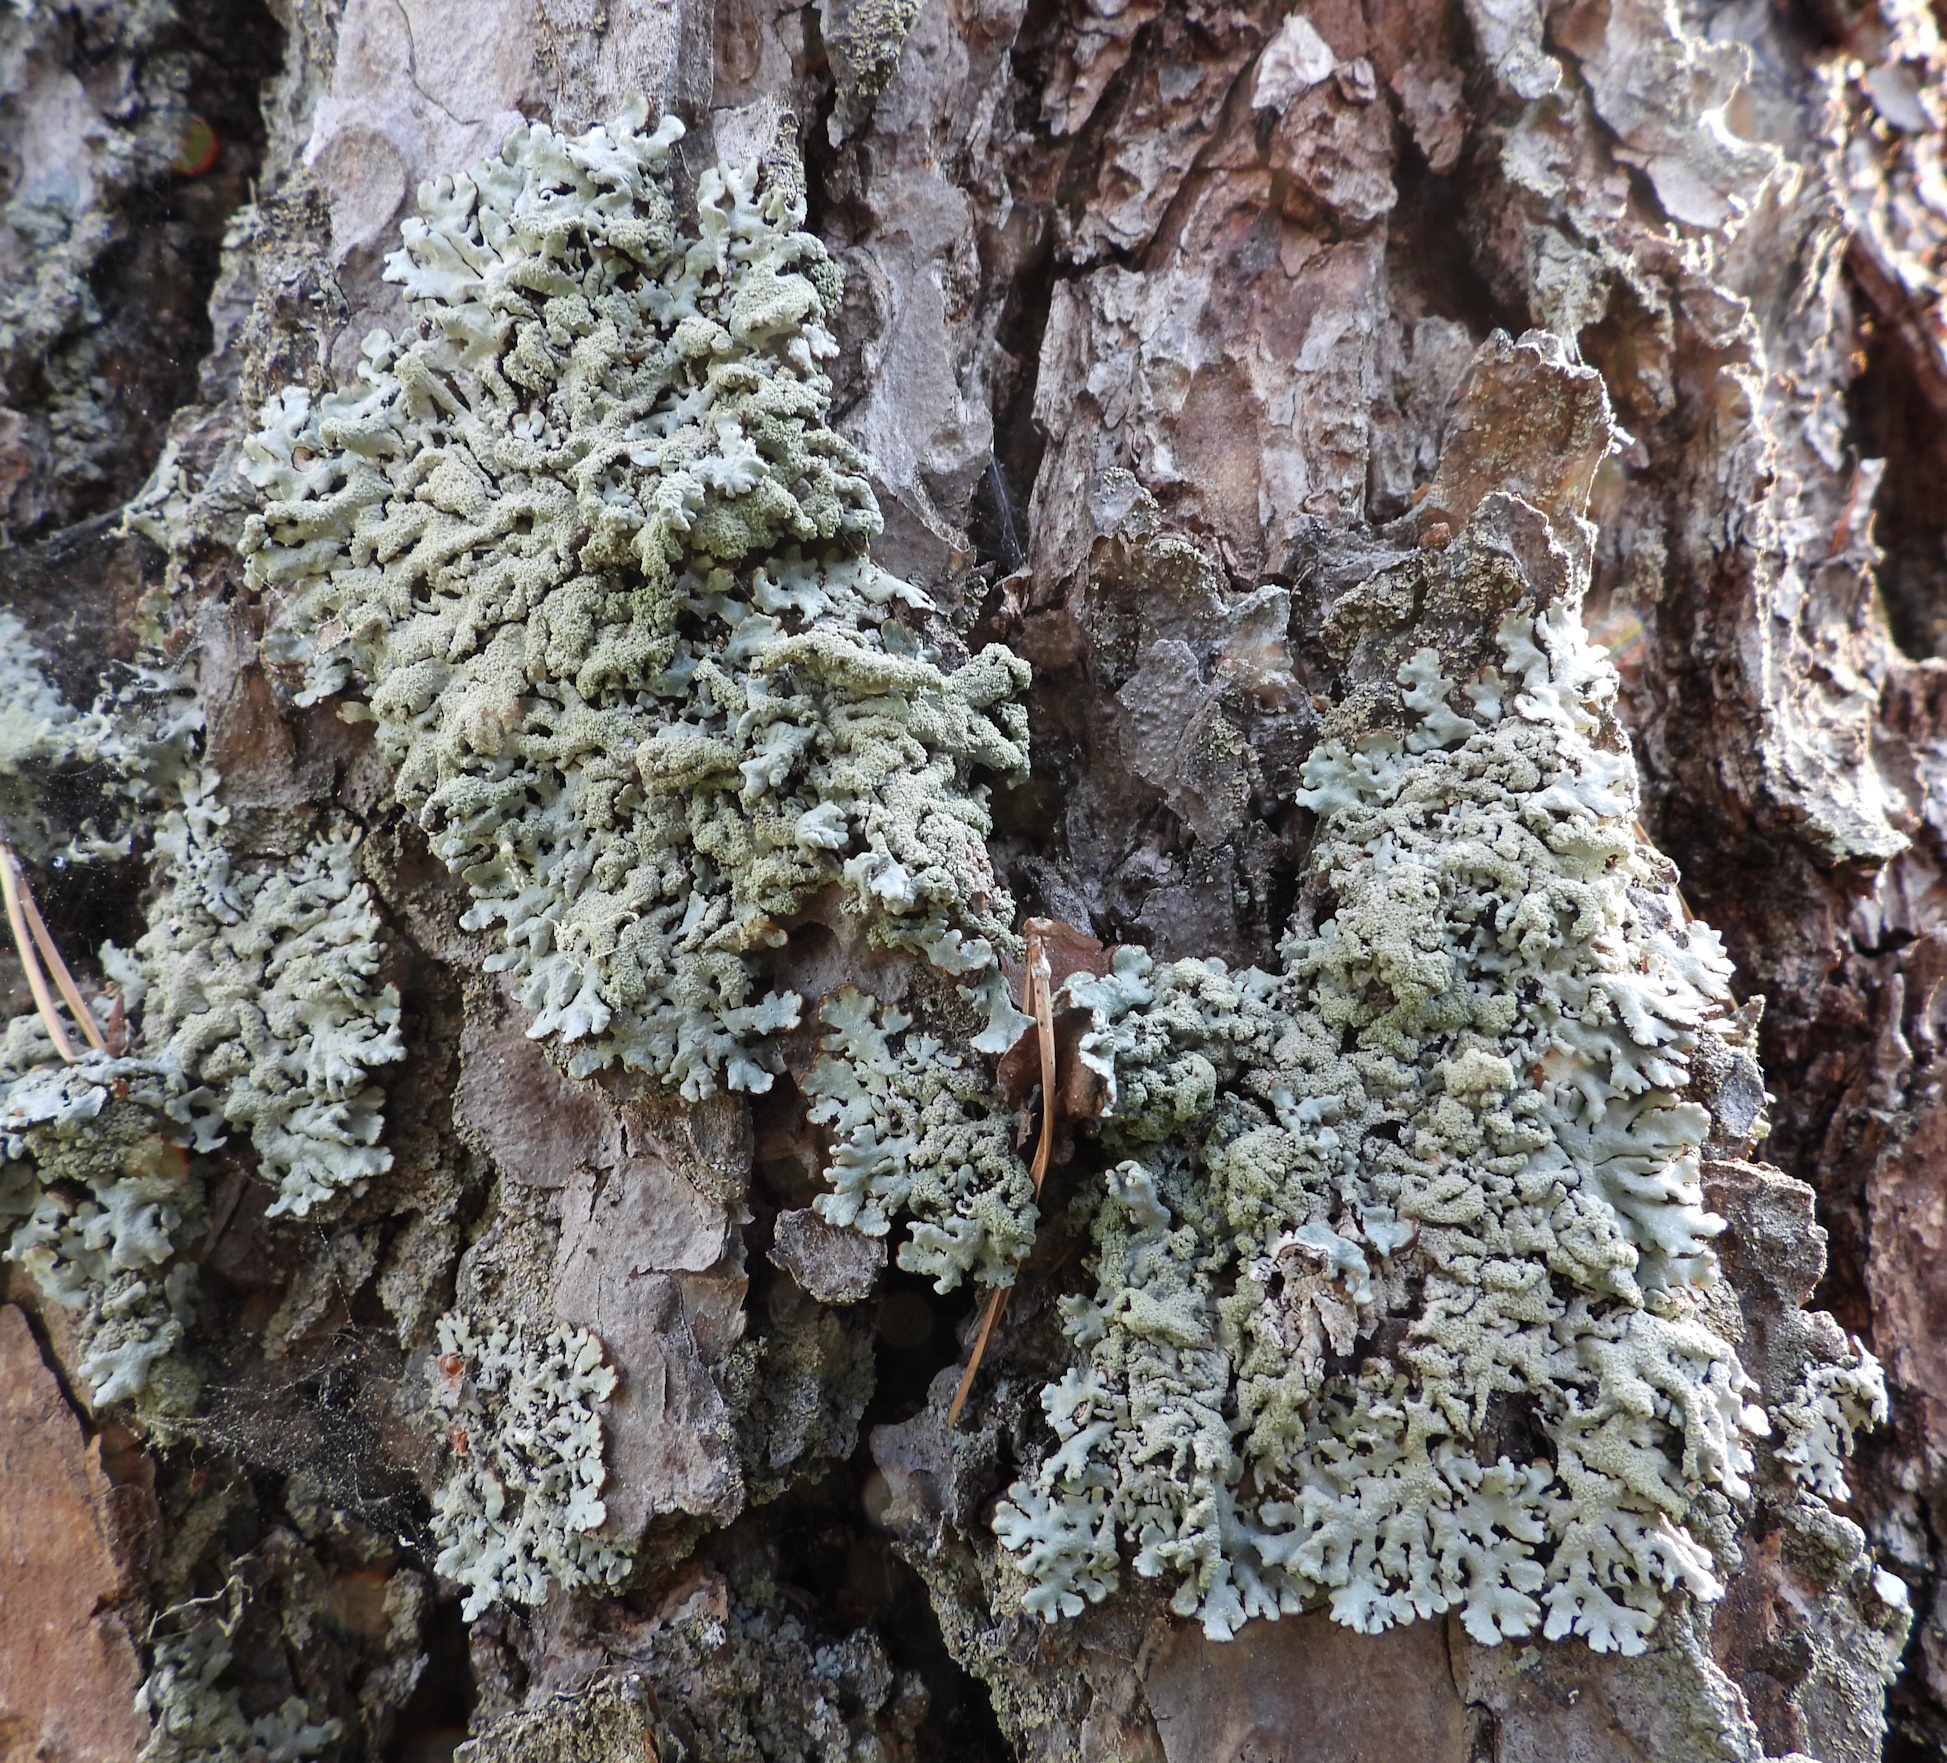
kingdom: Fungi
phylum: Ascomycota
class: Lecanoromycetes
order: Lecanorales
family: Parmeliaceae
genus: Hypogymnia
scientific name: Hypogymnia farinacea
